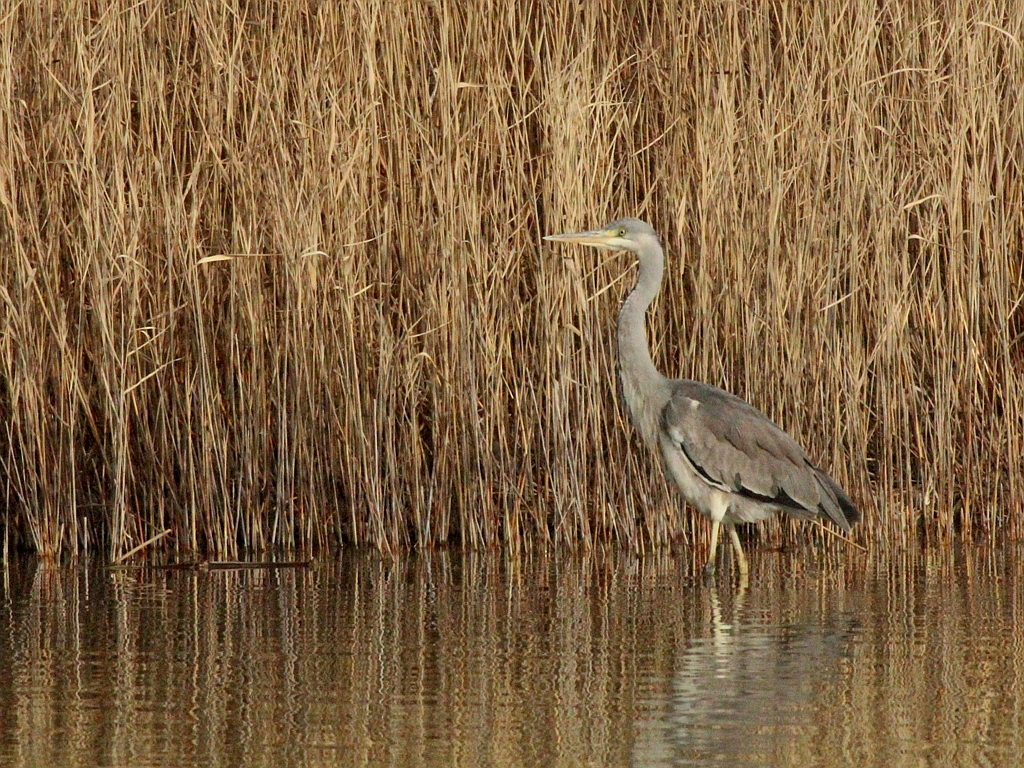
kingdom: Animalia
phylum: Chordata
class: Aves
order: Pelecaniformes
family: Ardeidae
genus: Ardea
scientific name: Ardea cinerea
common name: Grey heron
